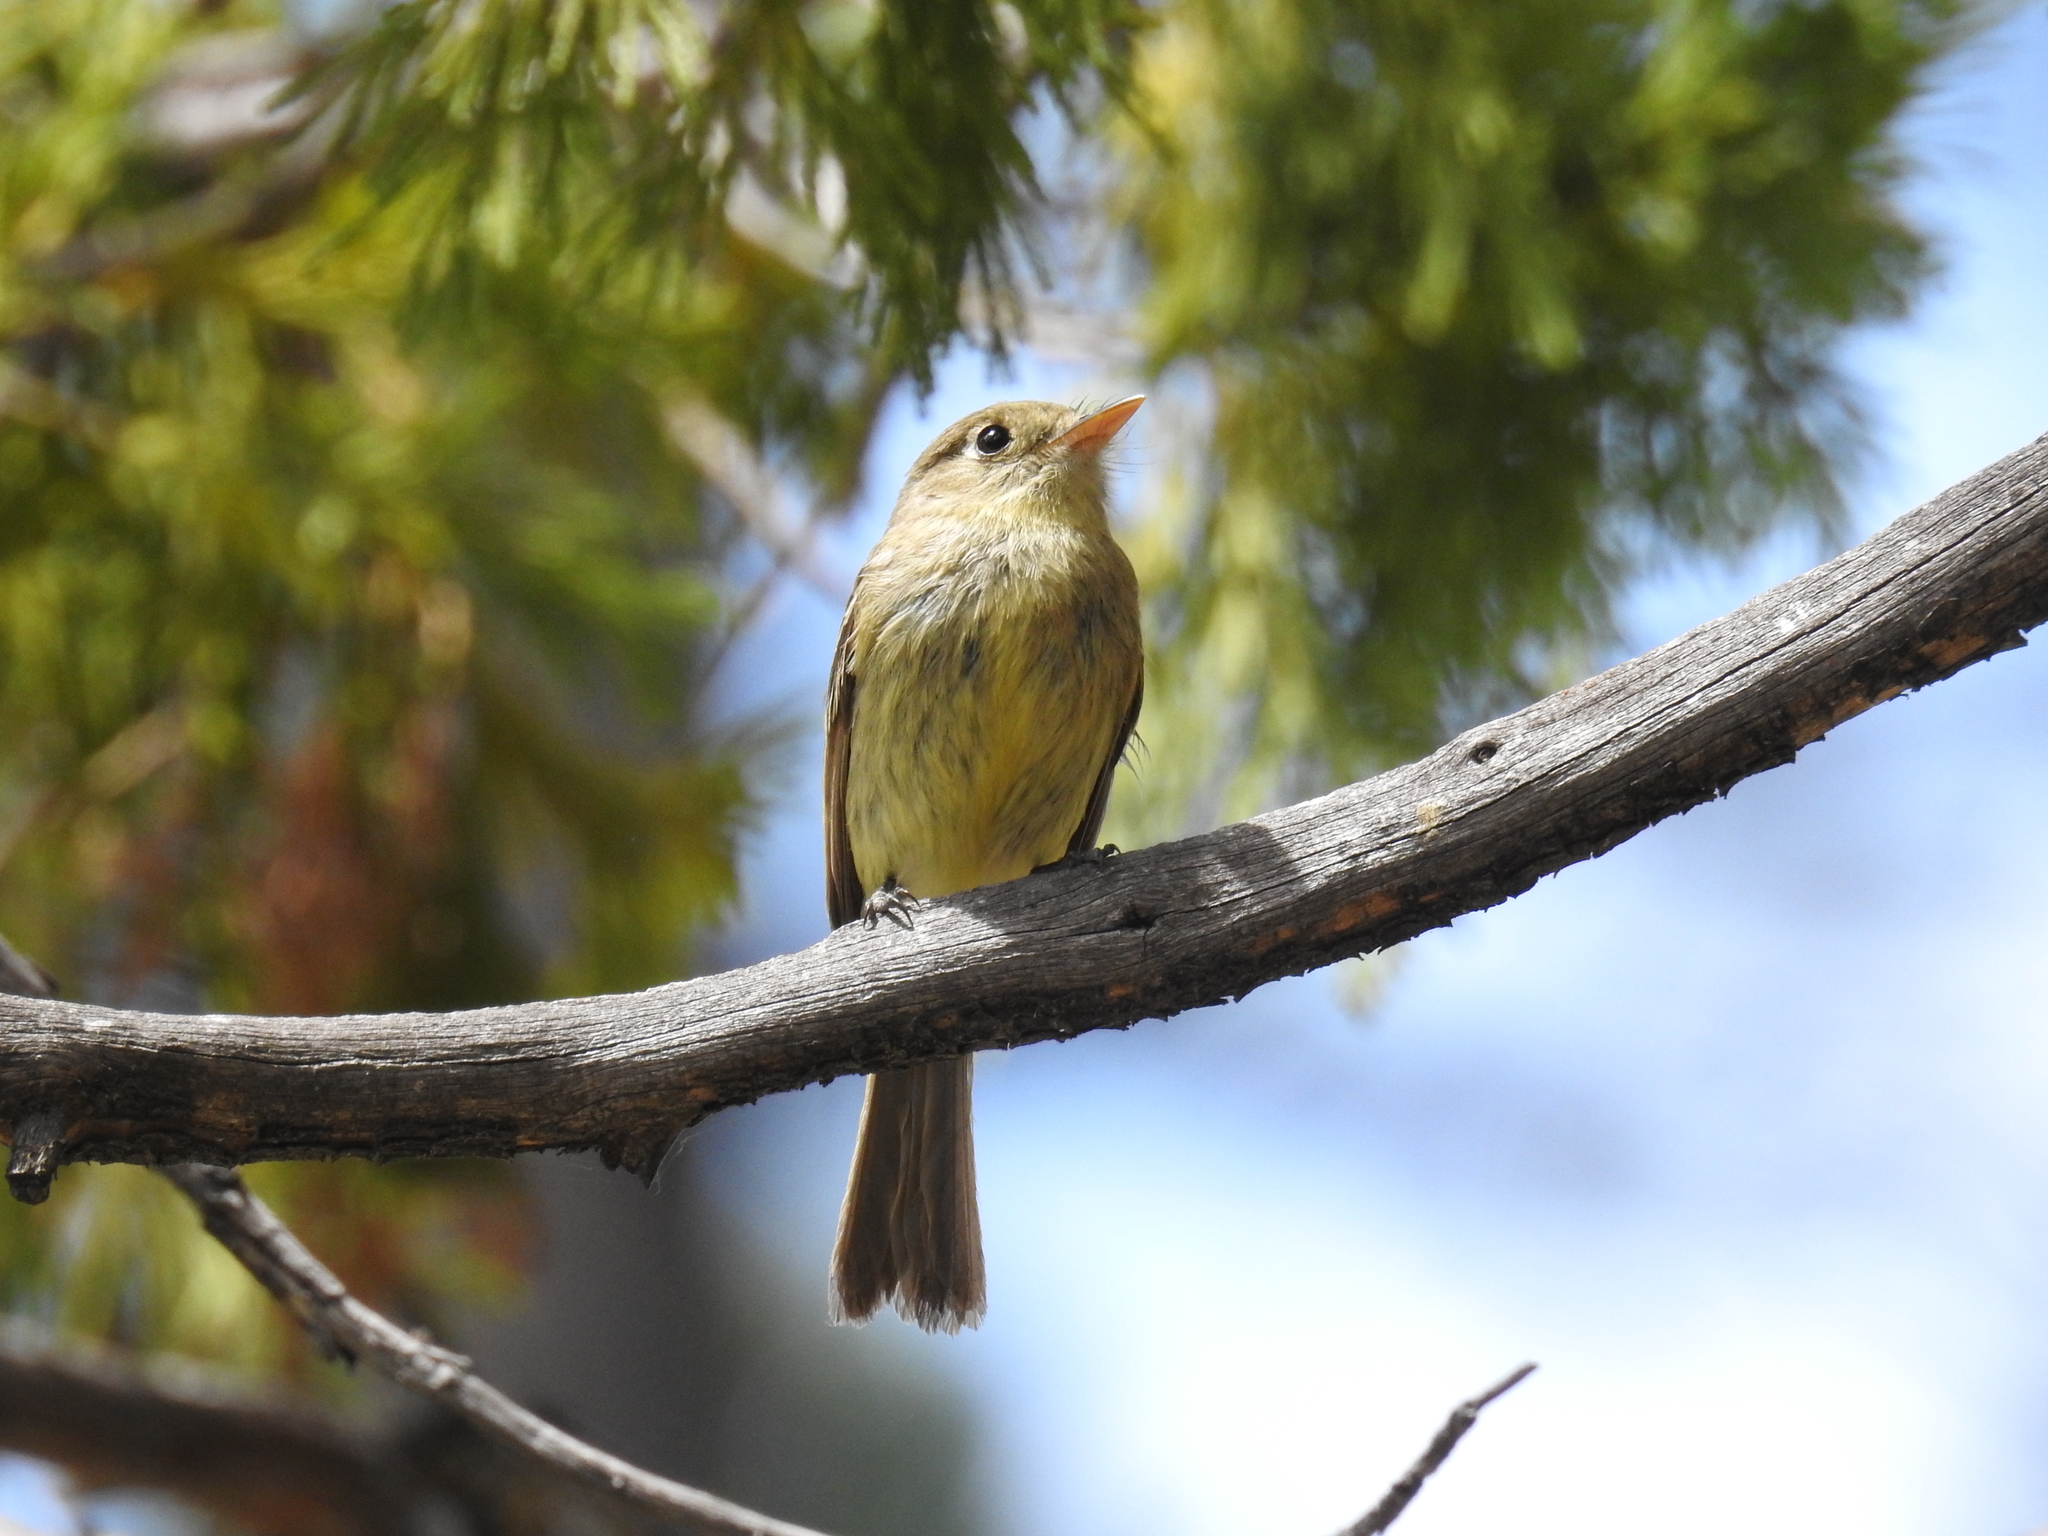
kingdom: Animalia
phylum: Chordata
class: Aves
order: Passeriformes
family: Tyrannidae
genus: Empidonax
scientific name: Empidonax difficilis
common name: Pacific-slope flycatcher
